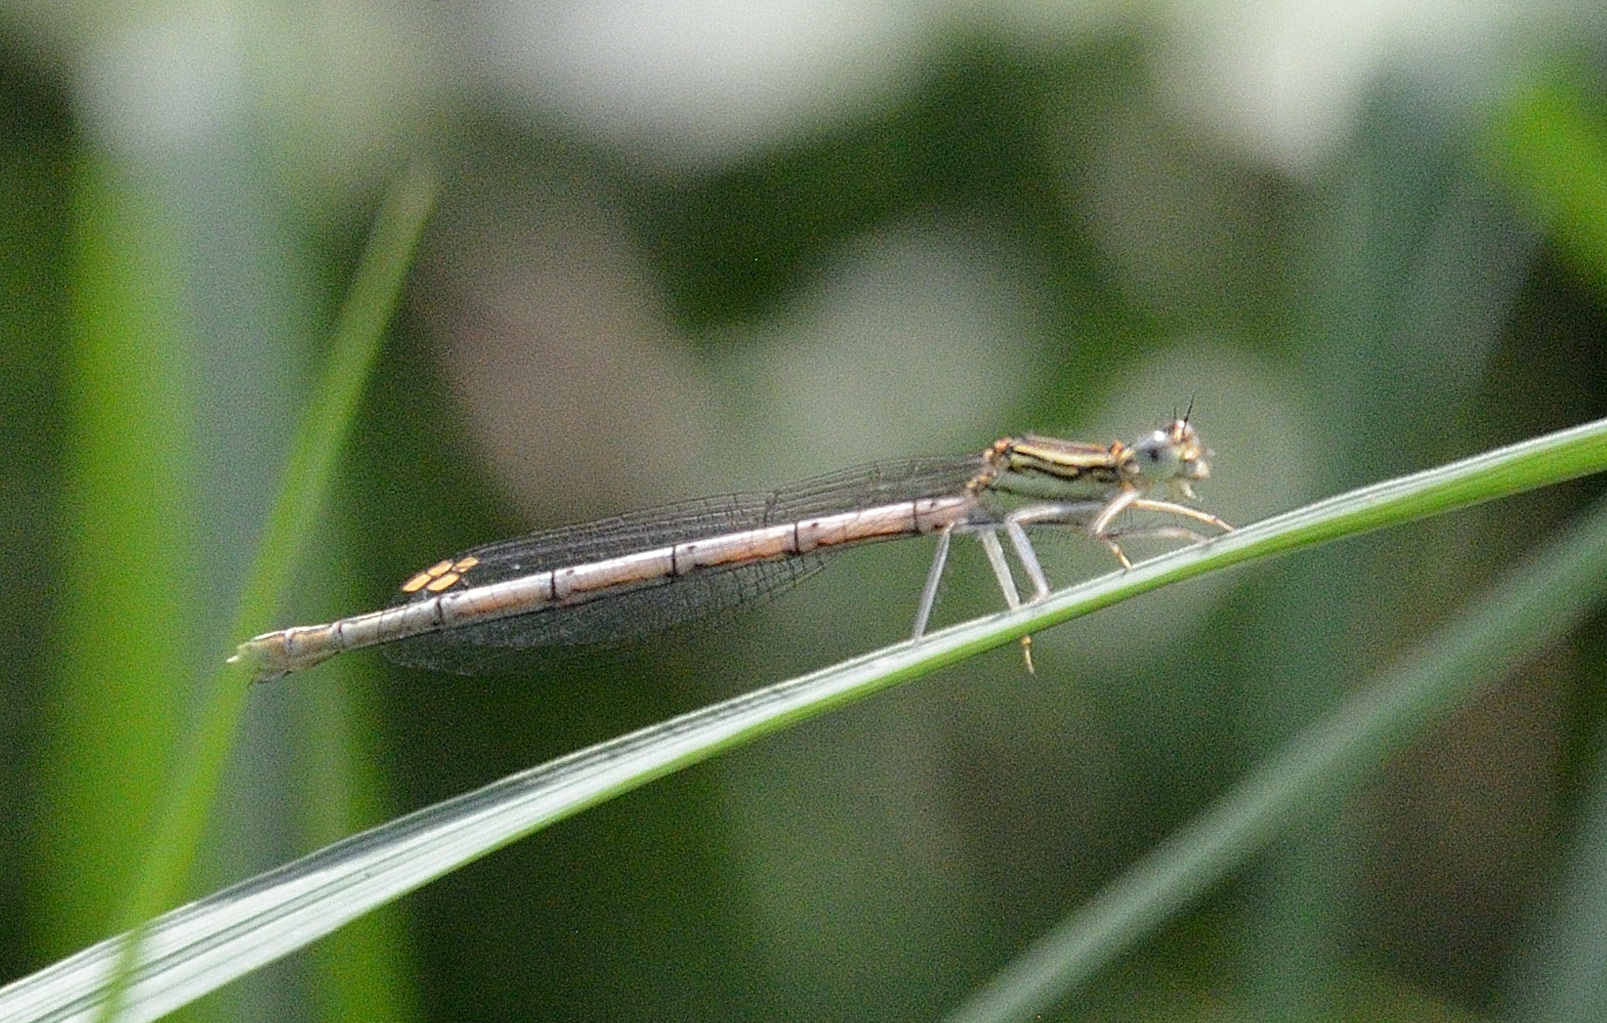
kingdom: Animalia
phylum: Arthropoda
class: Insecta
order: Odonata
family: Platycnemididae
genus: Platycnemis
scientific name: Platycnemis pennipes
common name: White-legged damselfly
